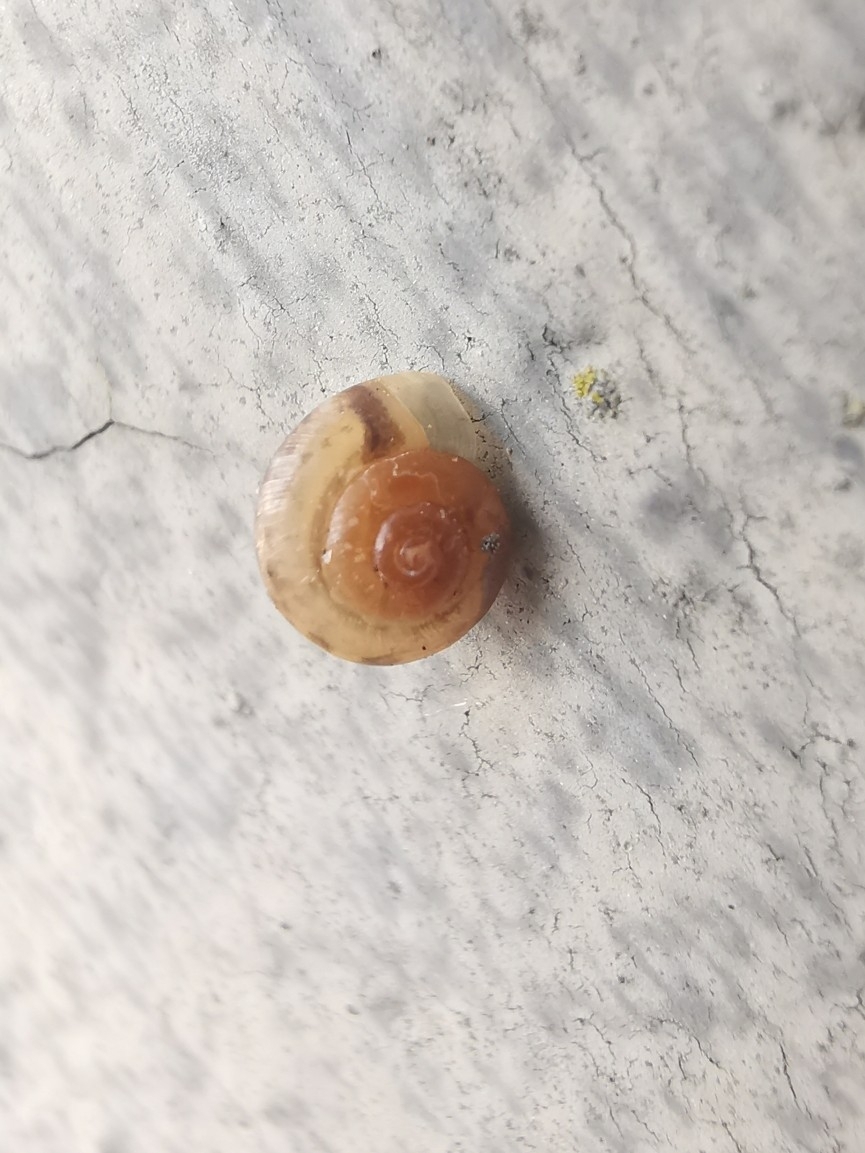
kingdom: Animalia
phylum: Mollusca
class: Gastropoda
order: Stylommatophora
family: Hygromiidae
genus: Hygromia
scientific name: Hygromia cinctella
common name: Girdled snail
